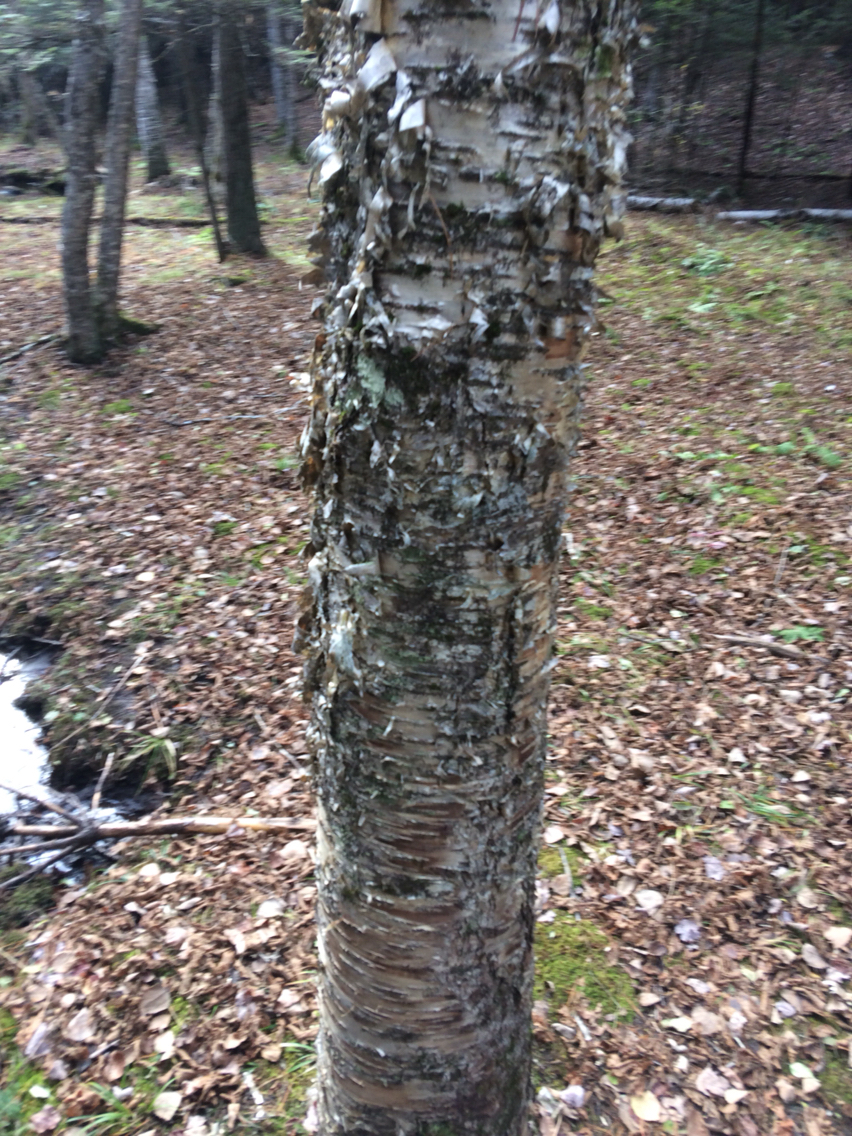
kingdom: Plantae
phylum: Tracheophyta
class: Magnoliopsida
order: Fagales
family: Betulaceae
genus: Betula
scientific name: Betula alleghaniensis
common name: Yellow birch
